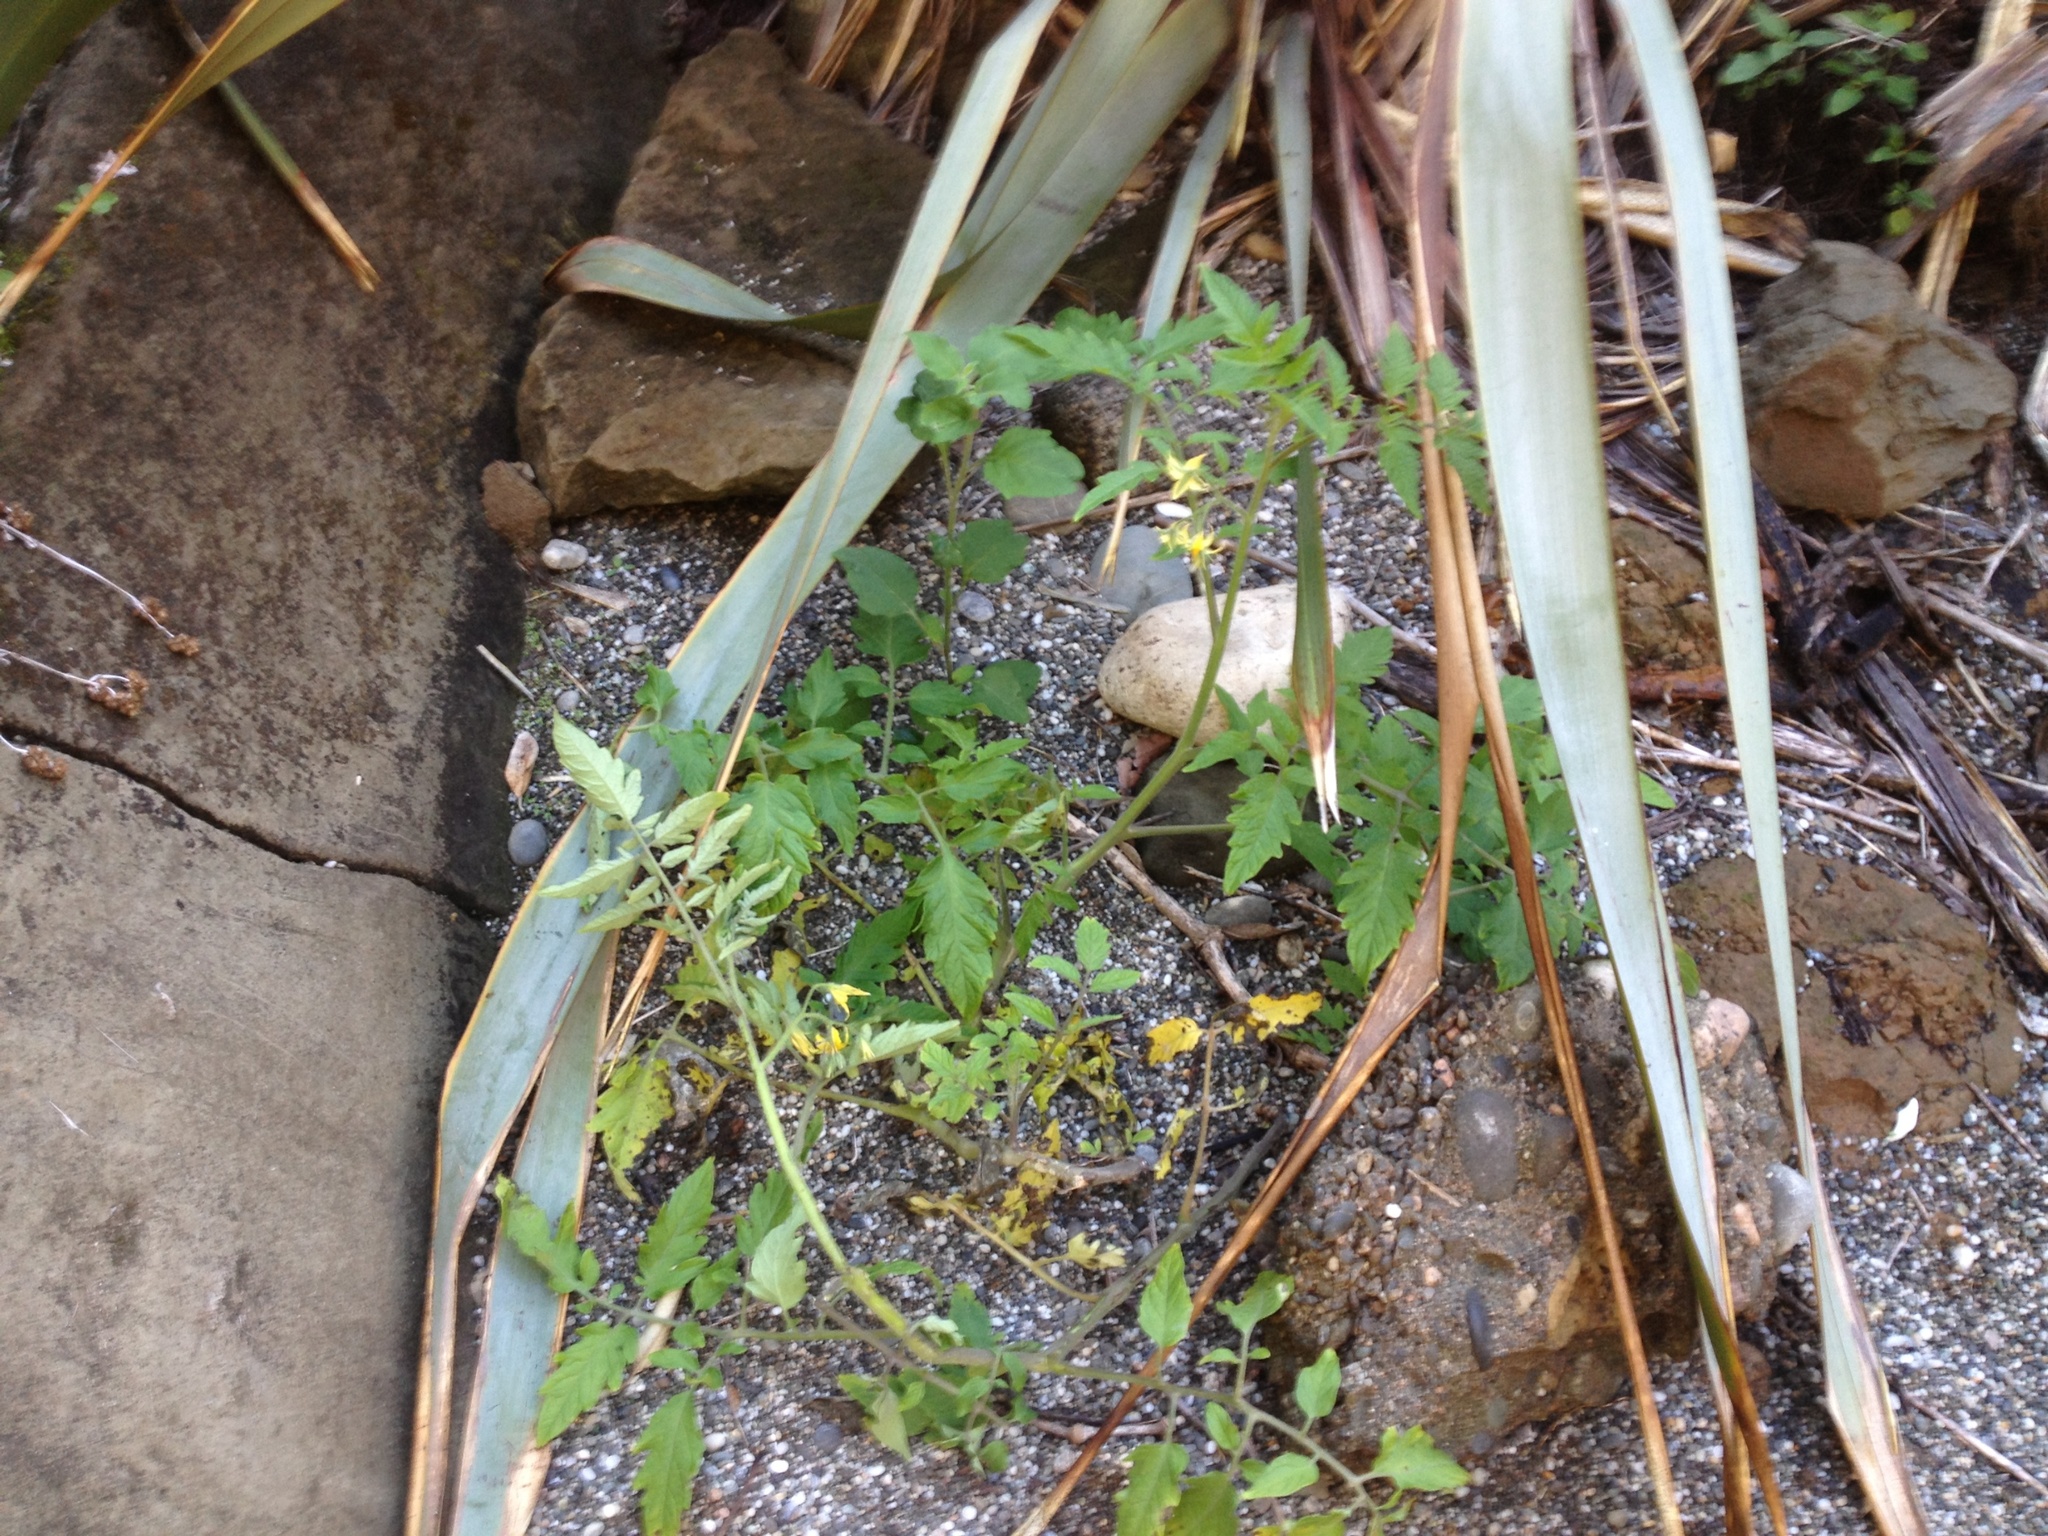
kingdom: Plantae
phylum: Tracheophyta
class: Magnoliopsida
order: Solanales
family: Solanaceae
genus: Solanum
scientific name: Solanum lycopersicum
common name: Garden tomato
